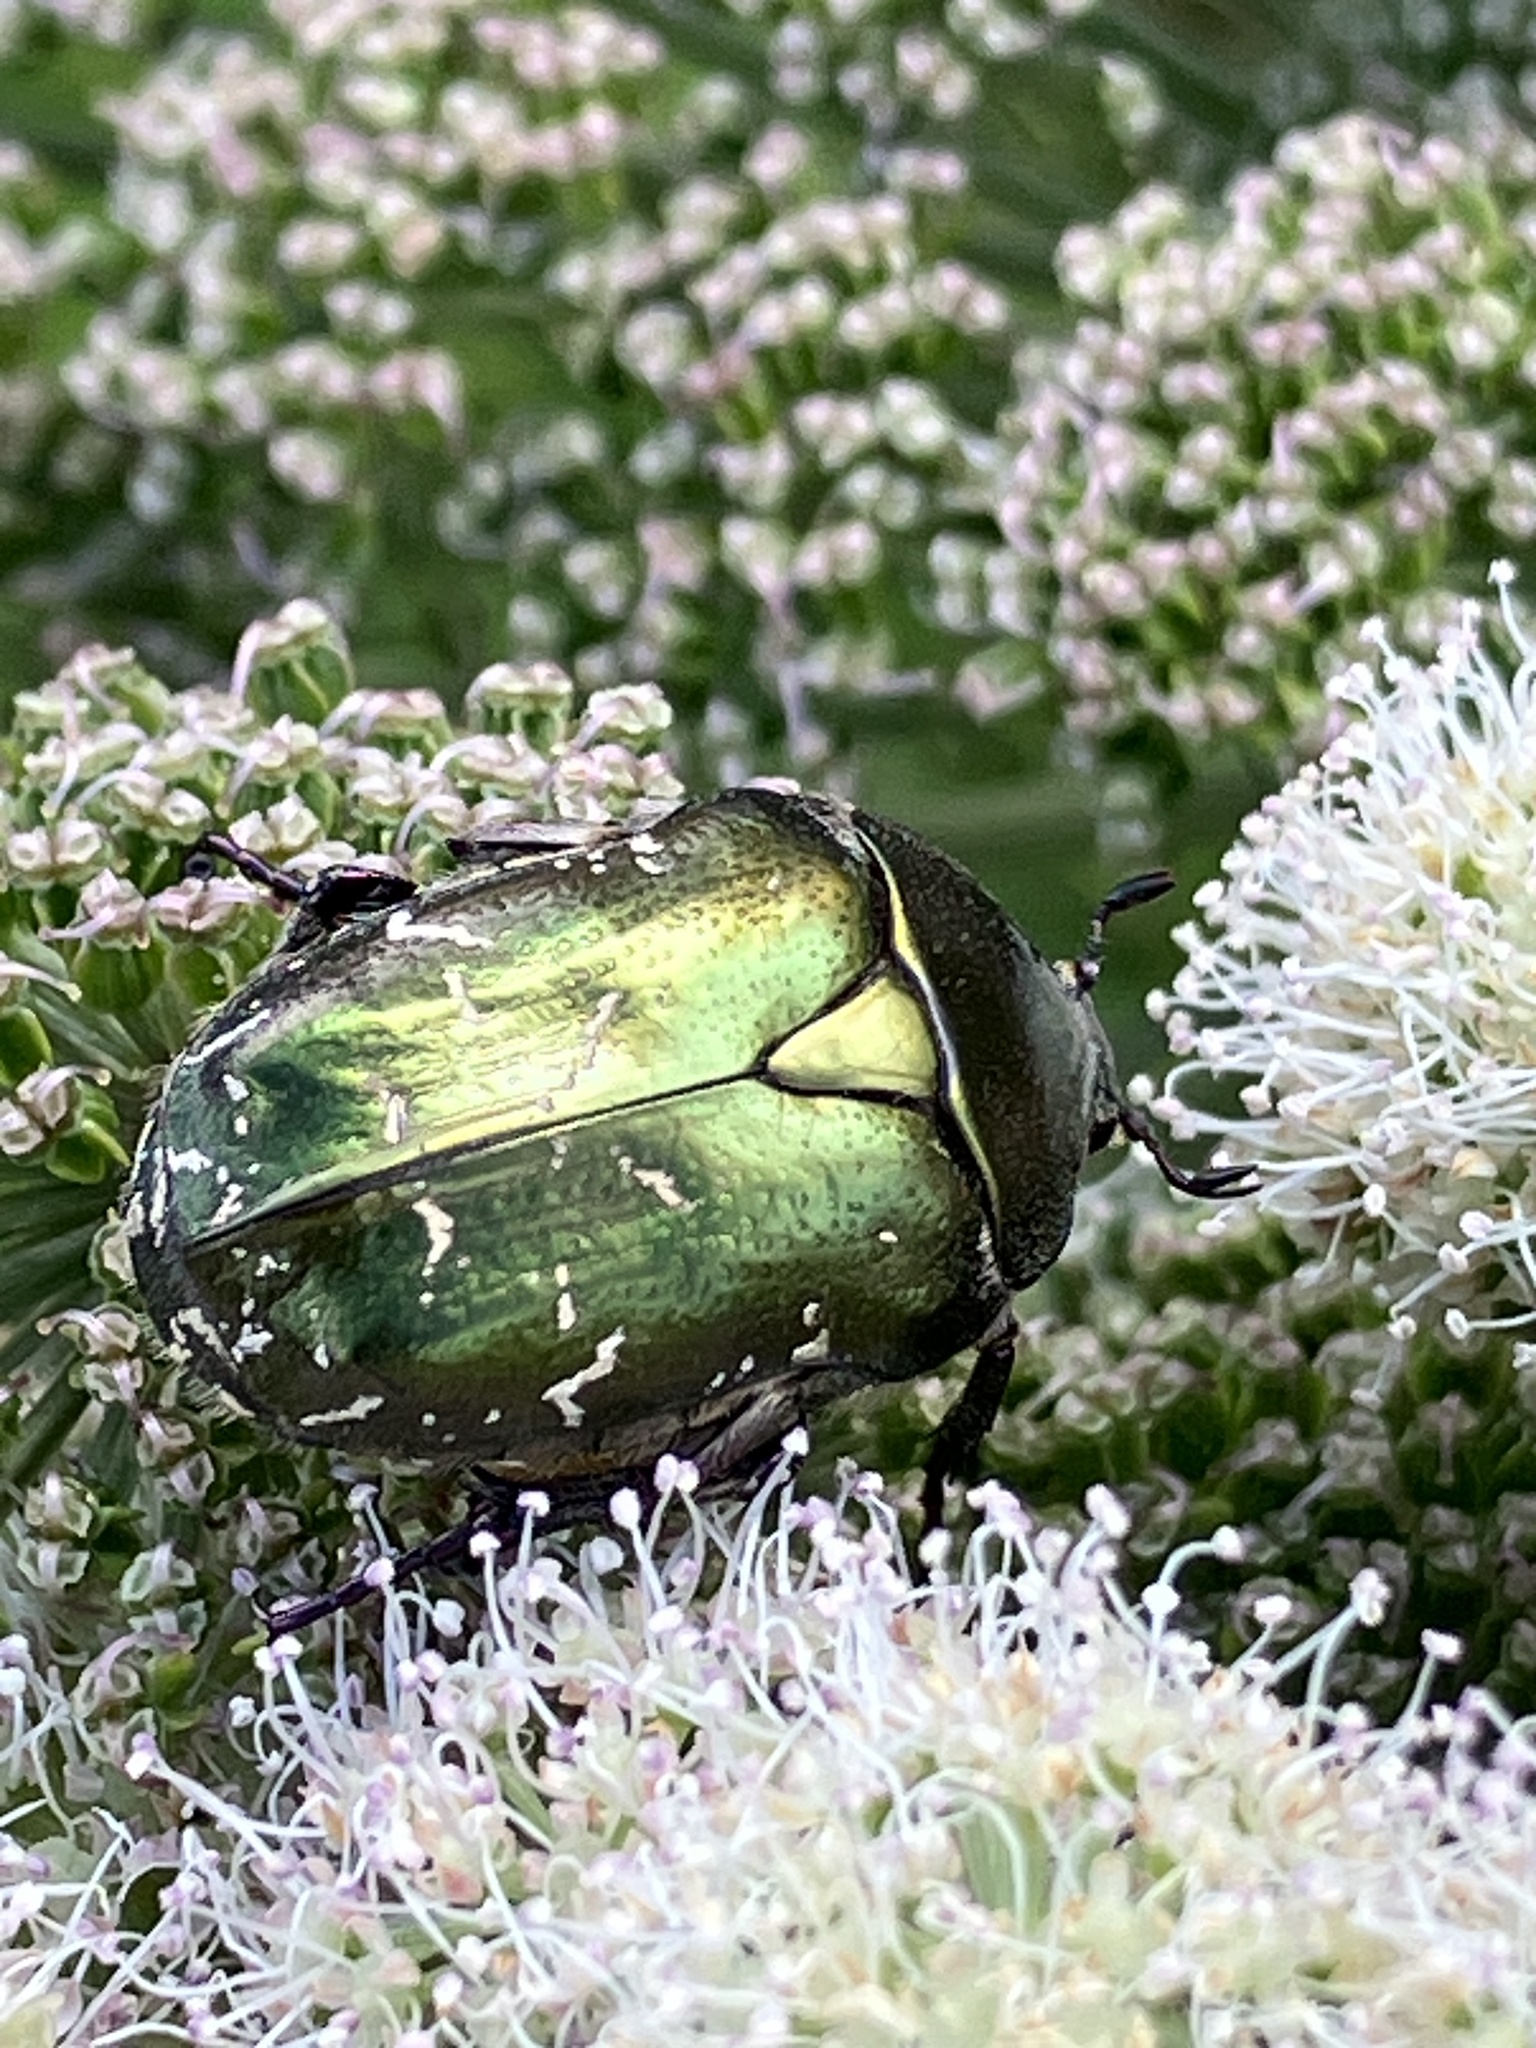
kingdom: Animalia
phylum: Arthropoda
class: Insecta
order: Coleoptera
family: Scarabaeidae
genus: Protaetia
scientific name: Protaetia cuprea
